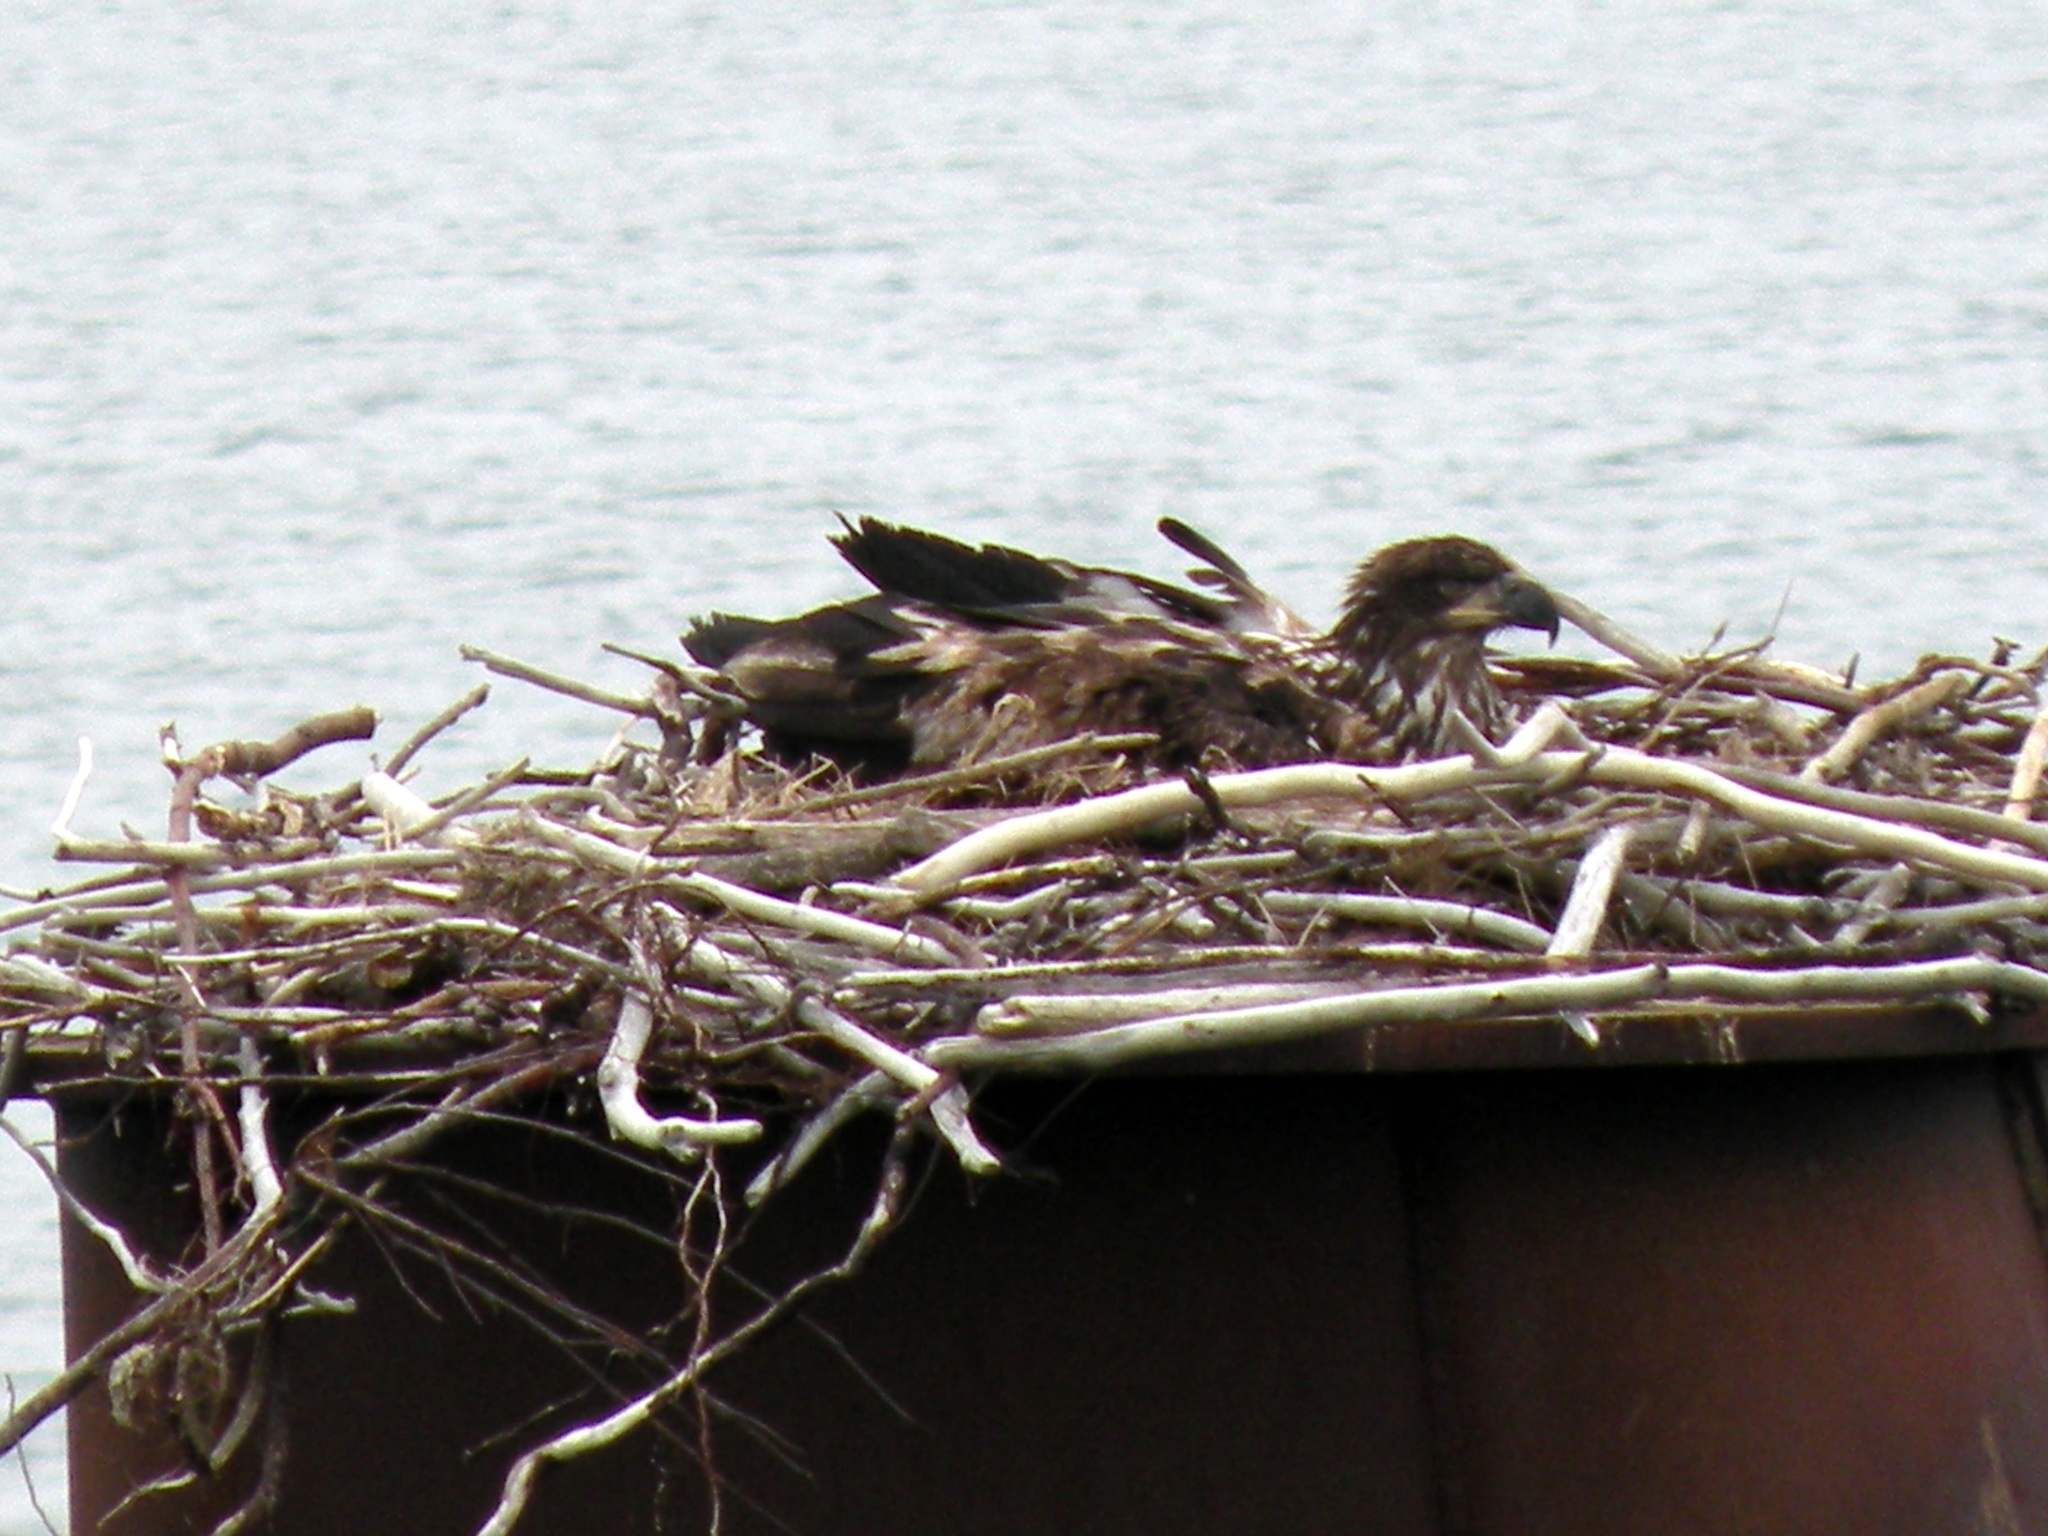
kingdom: Animalia
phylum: Chordata
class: Aves
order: Accipitriformes
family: Accipitridae
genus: Haliaeetus
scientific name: Haliaeetus leucocephalus
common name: Bald eagle
